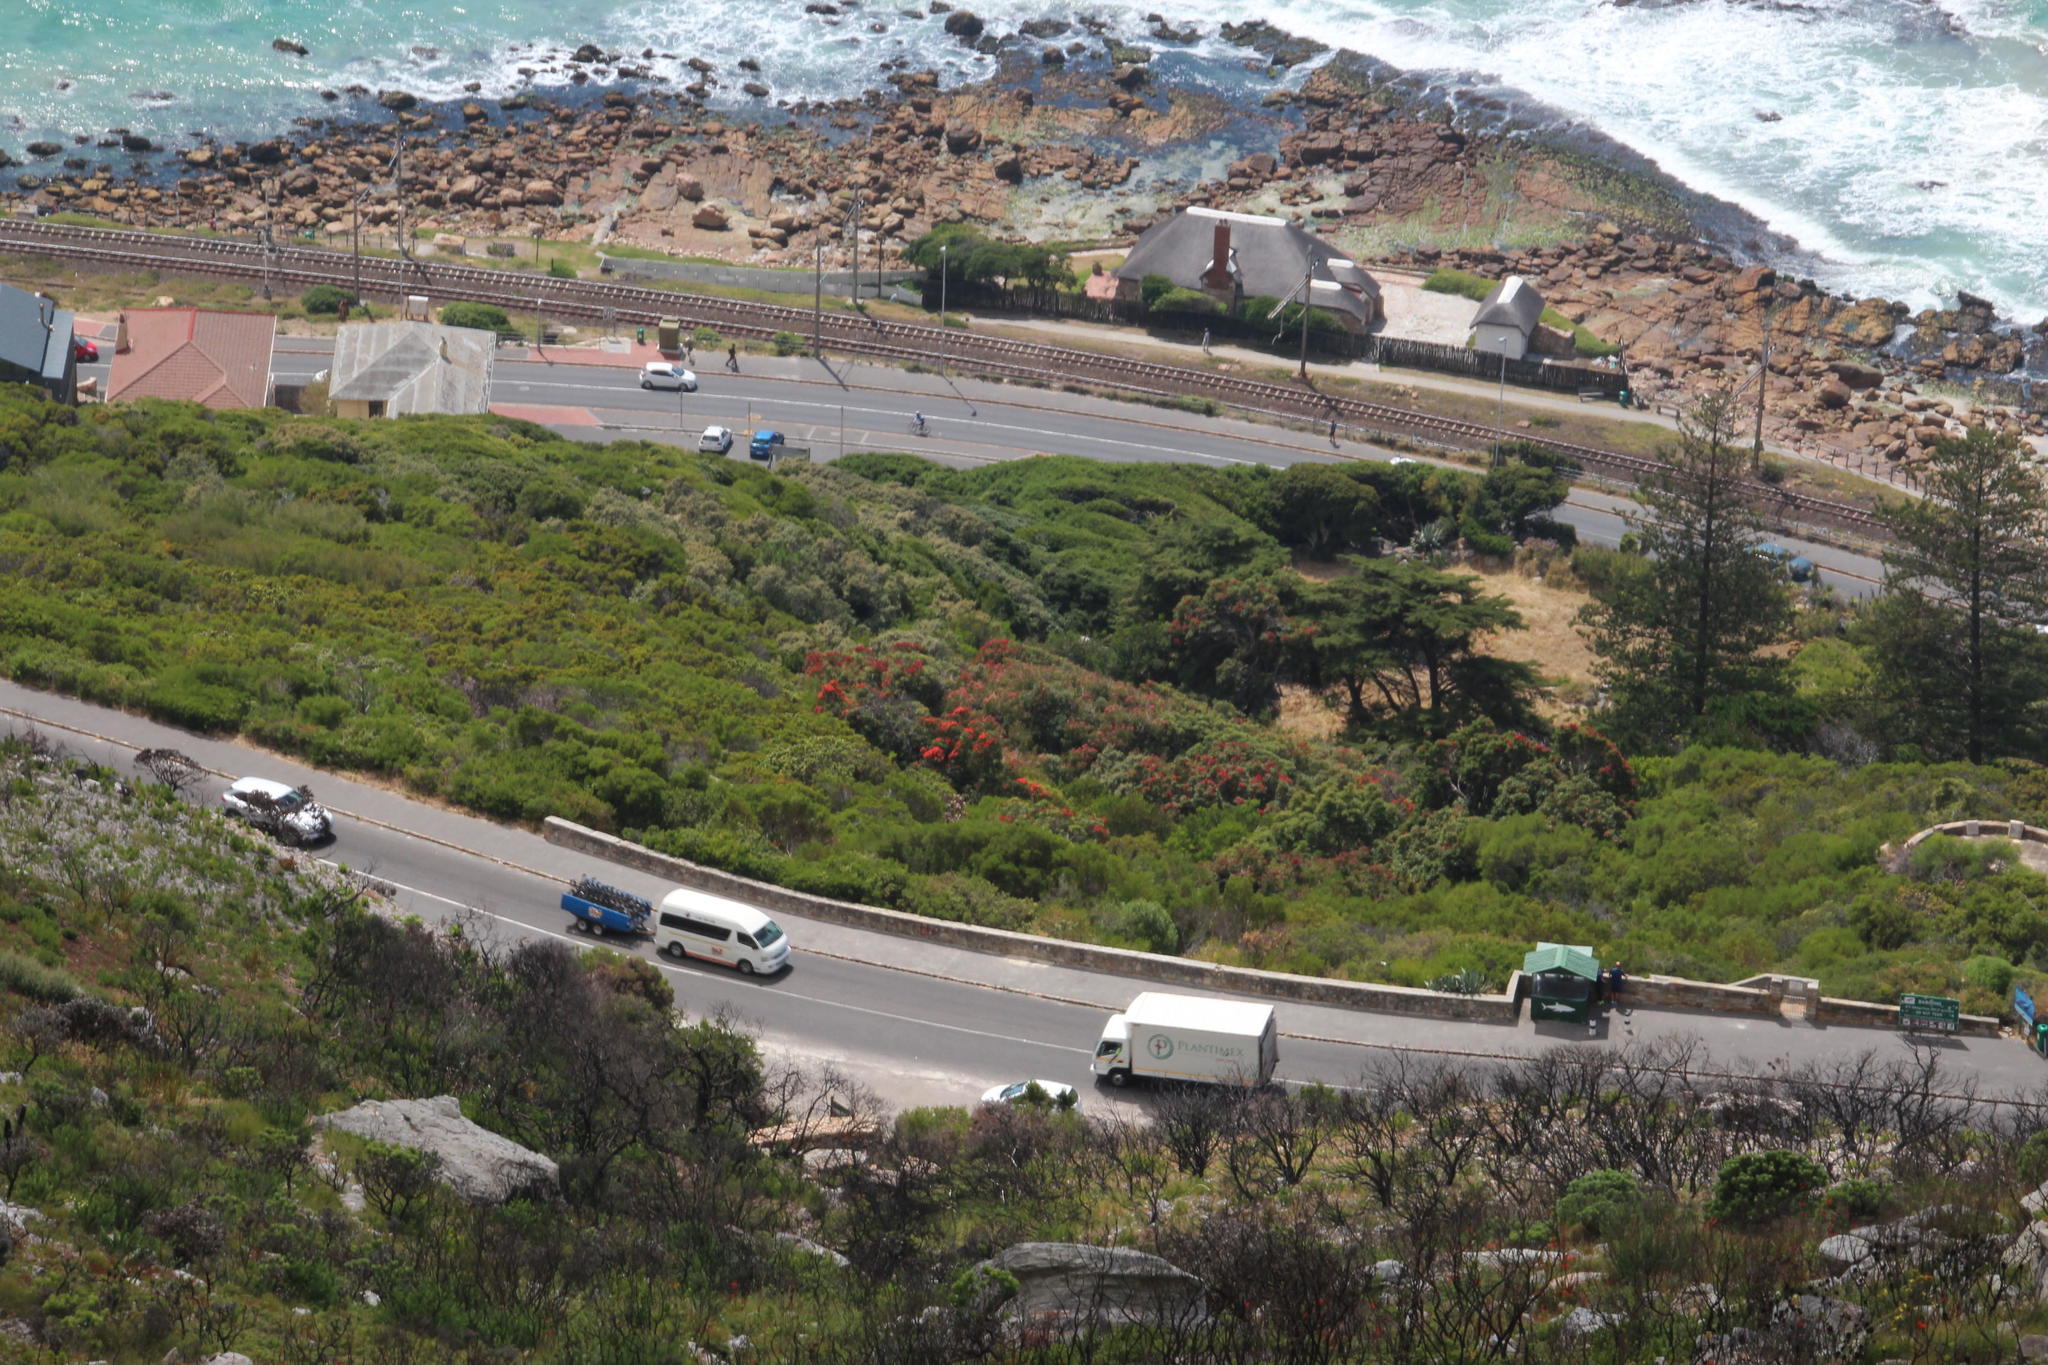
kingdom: Plantae
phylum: Tracheophyta
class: Magnoliopsida
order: Myrtales
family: Myrtaceae
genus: Corymbia
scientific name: Corymbia ficifolia
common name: Redflower gum
